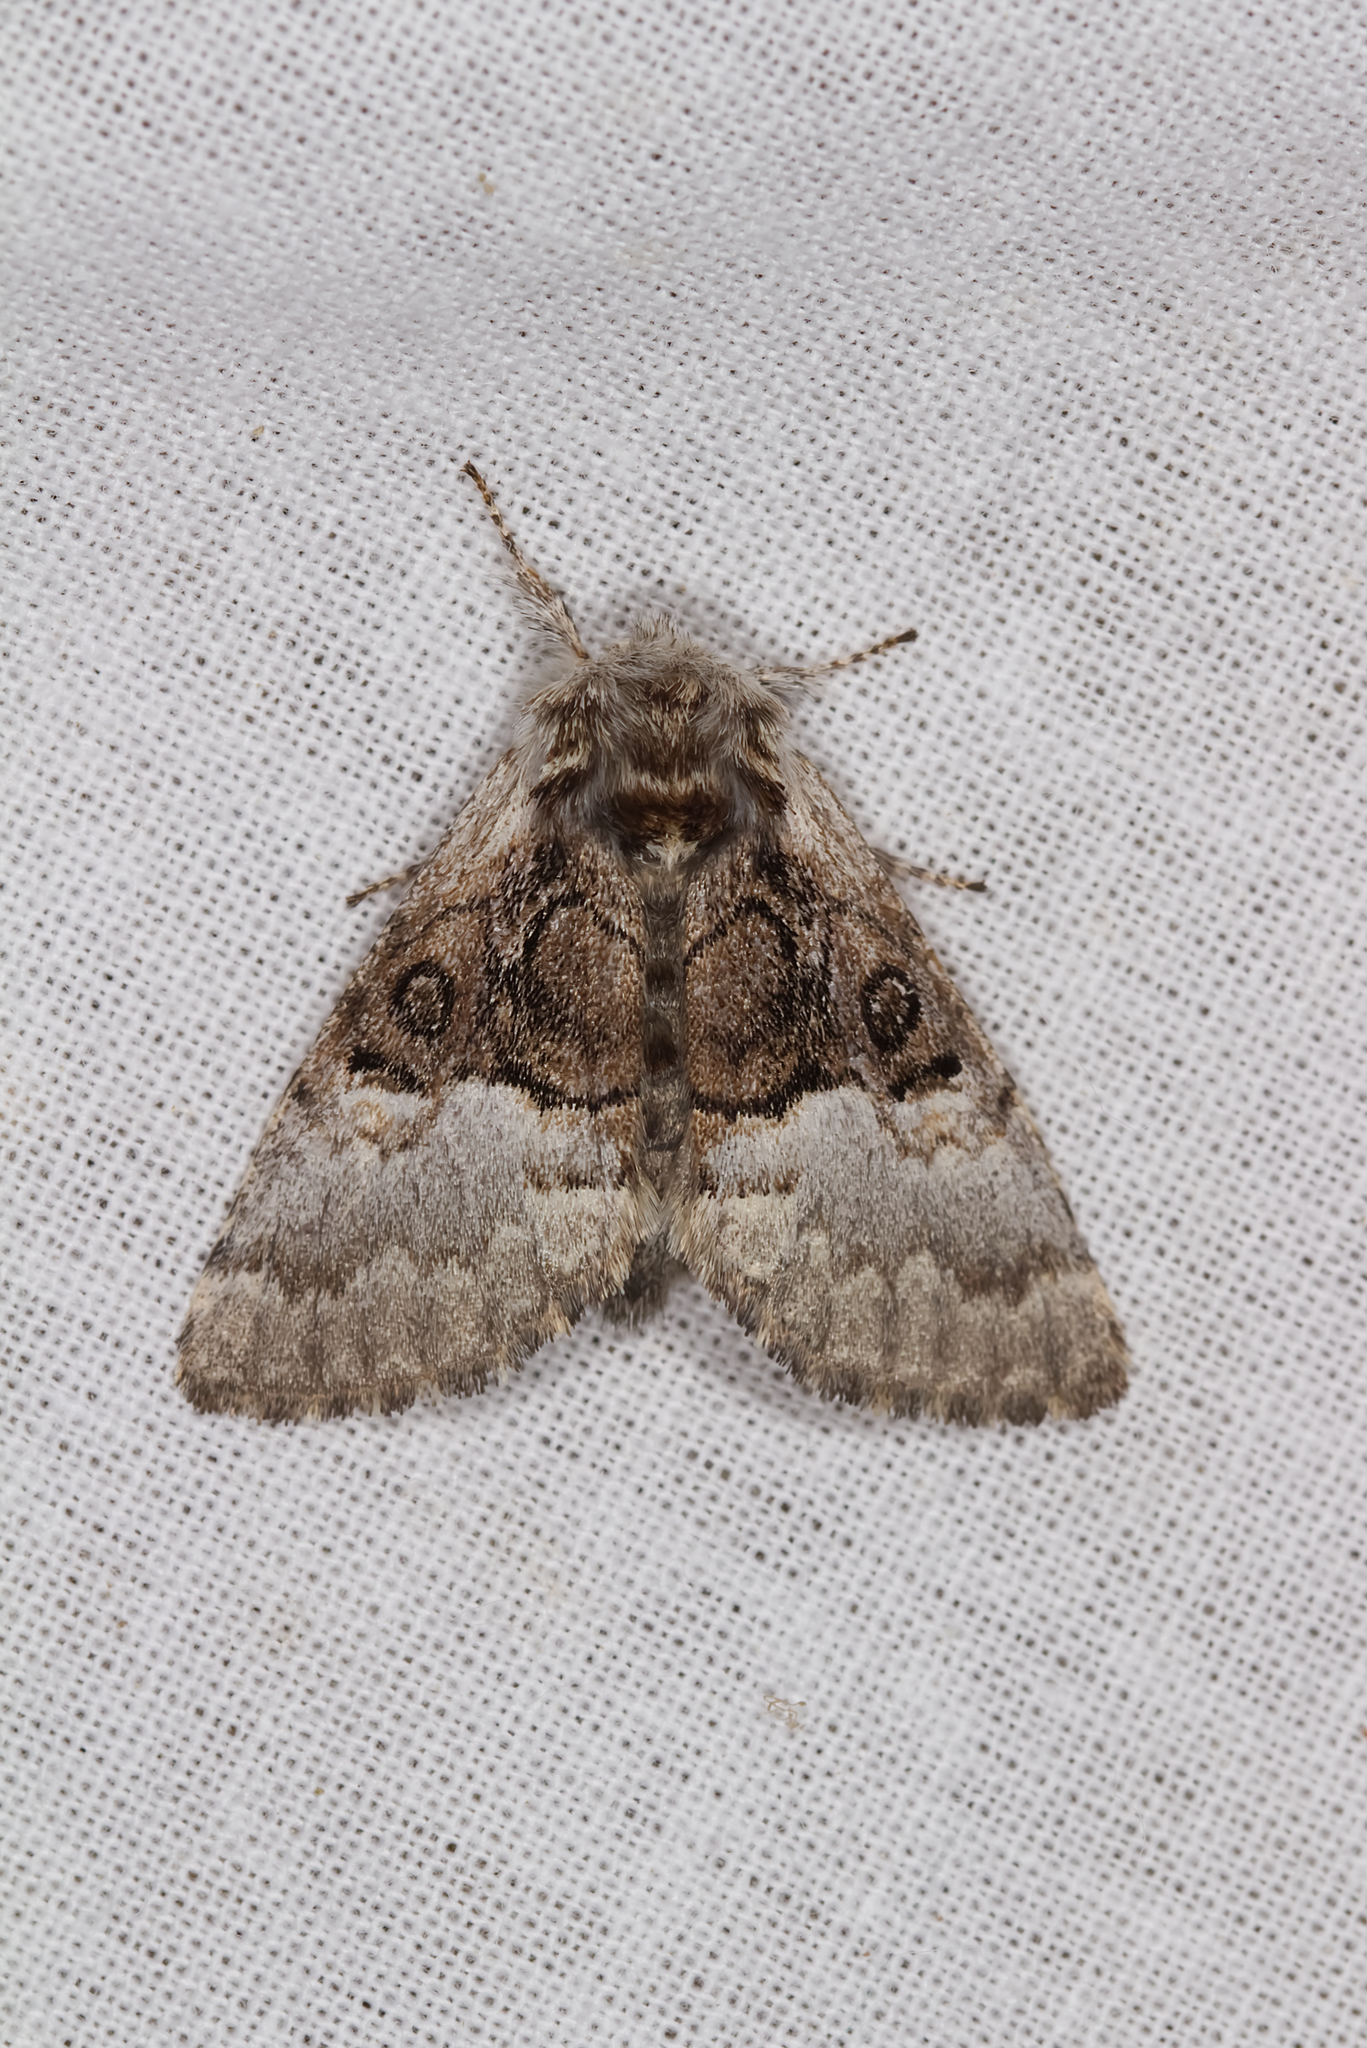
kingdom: Animalia
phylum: Arthropoda
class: Insecta
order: Lepidoptera
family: Noctuidae
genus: Colocasia
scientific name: Colocasia coryli
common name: Nut-tree tussock
